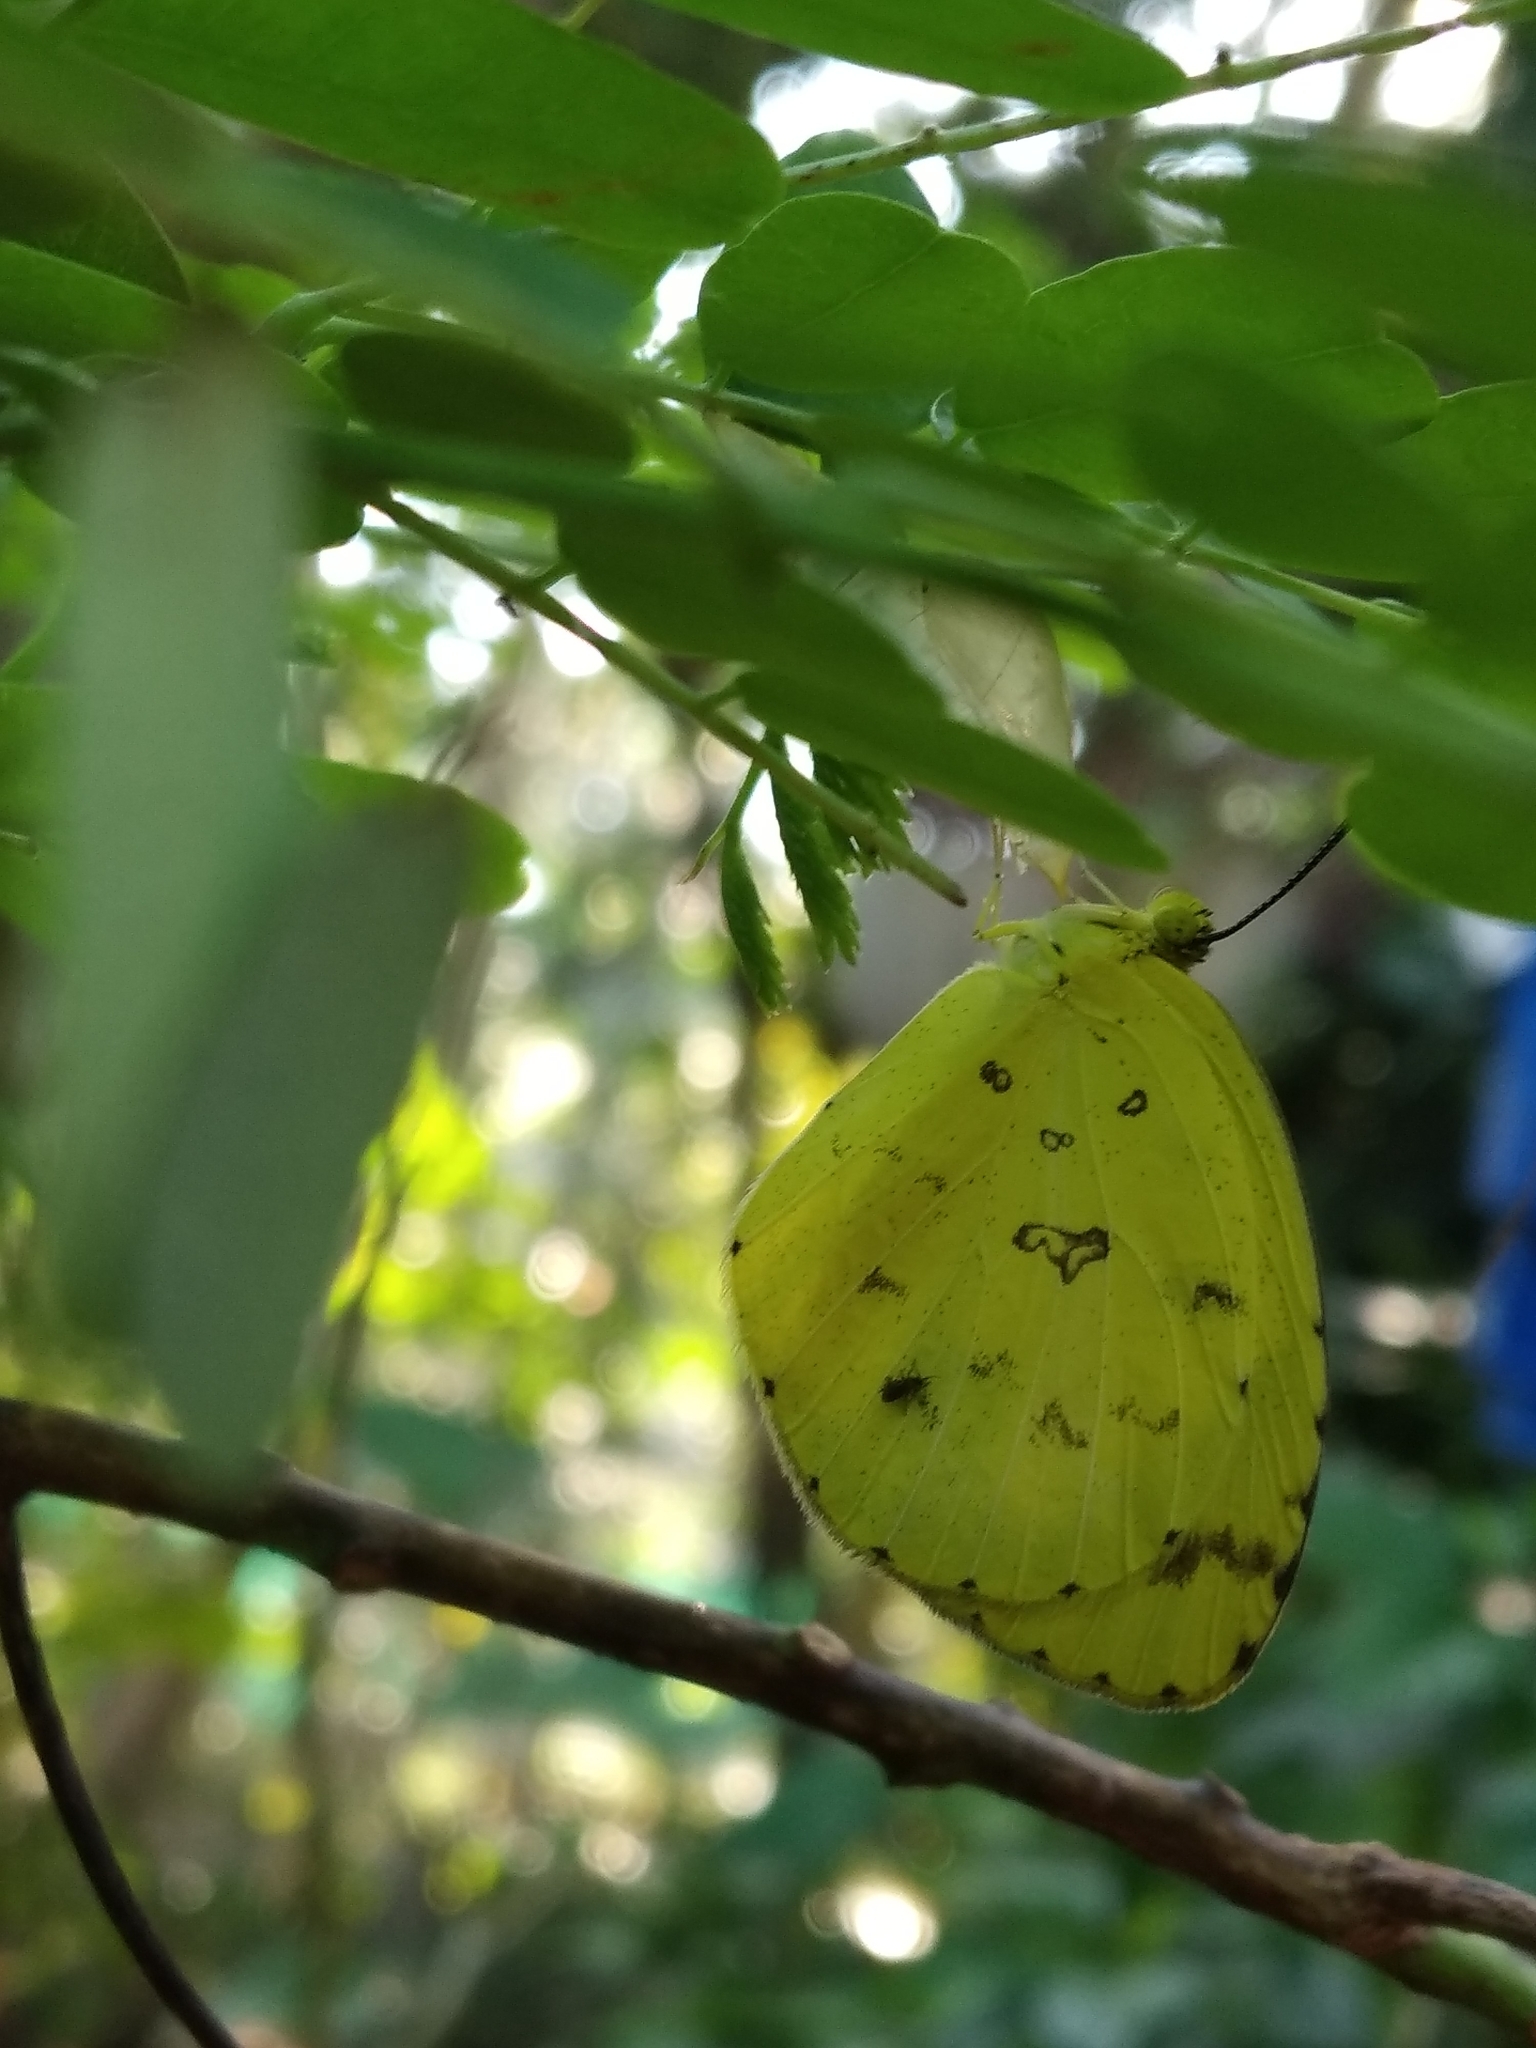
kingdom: Animalia
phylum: Arthropoda
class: Insecta
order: Lepidoptera
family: Pieridae
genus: Eurema
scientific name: Eurema hecabe
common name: Pale grass yellow
